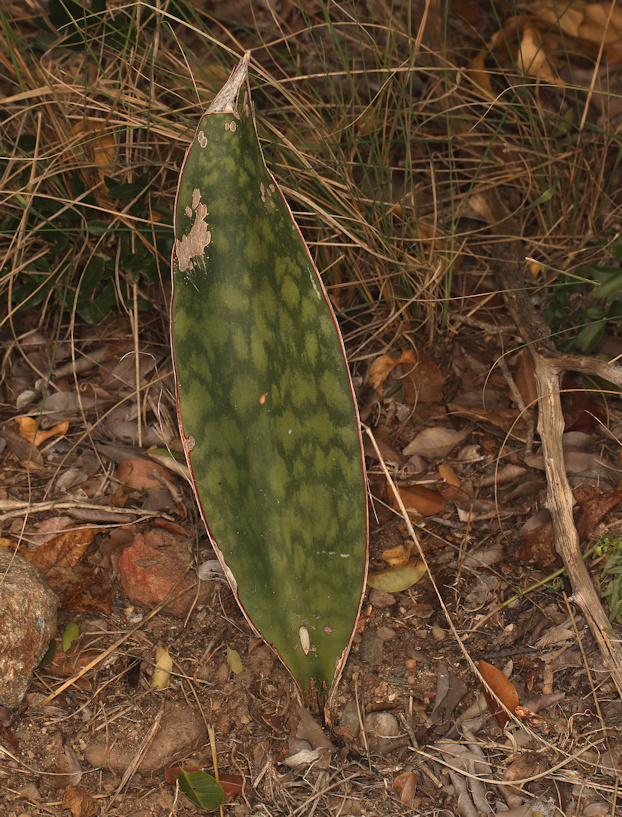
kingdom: Plantae
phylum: Tracheophyta
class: Liliopsida
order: Asparagales
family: Asparagaceae
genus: Dracaena
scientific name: Dracaena hyacinthoides
